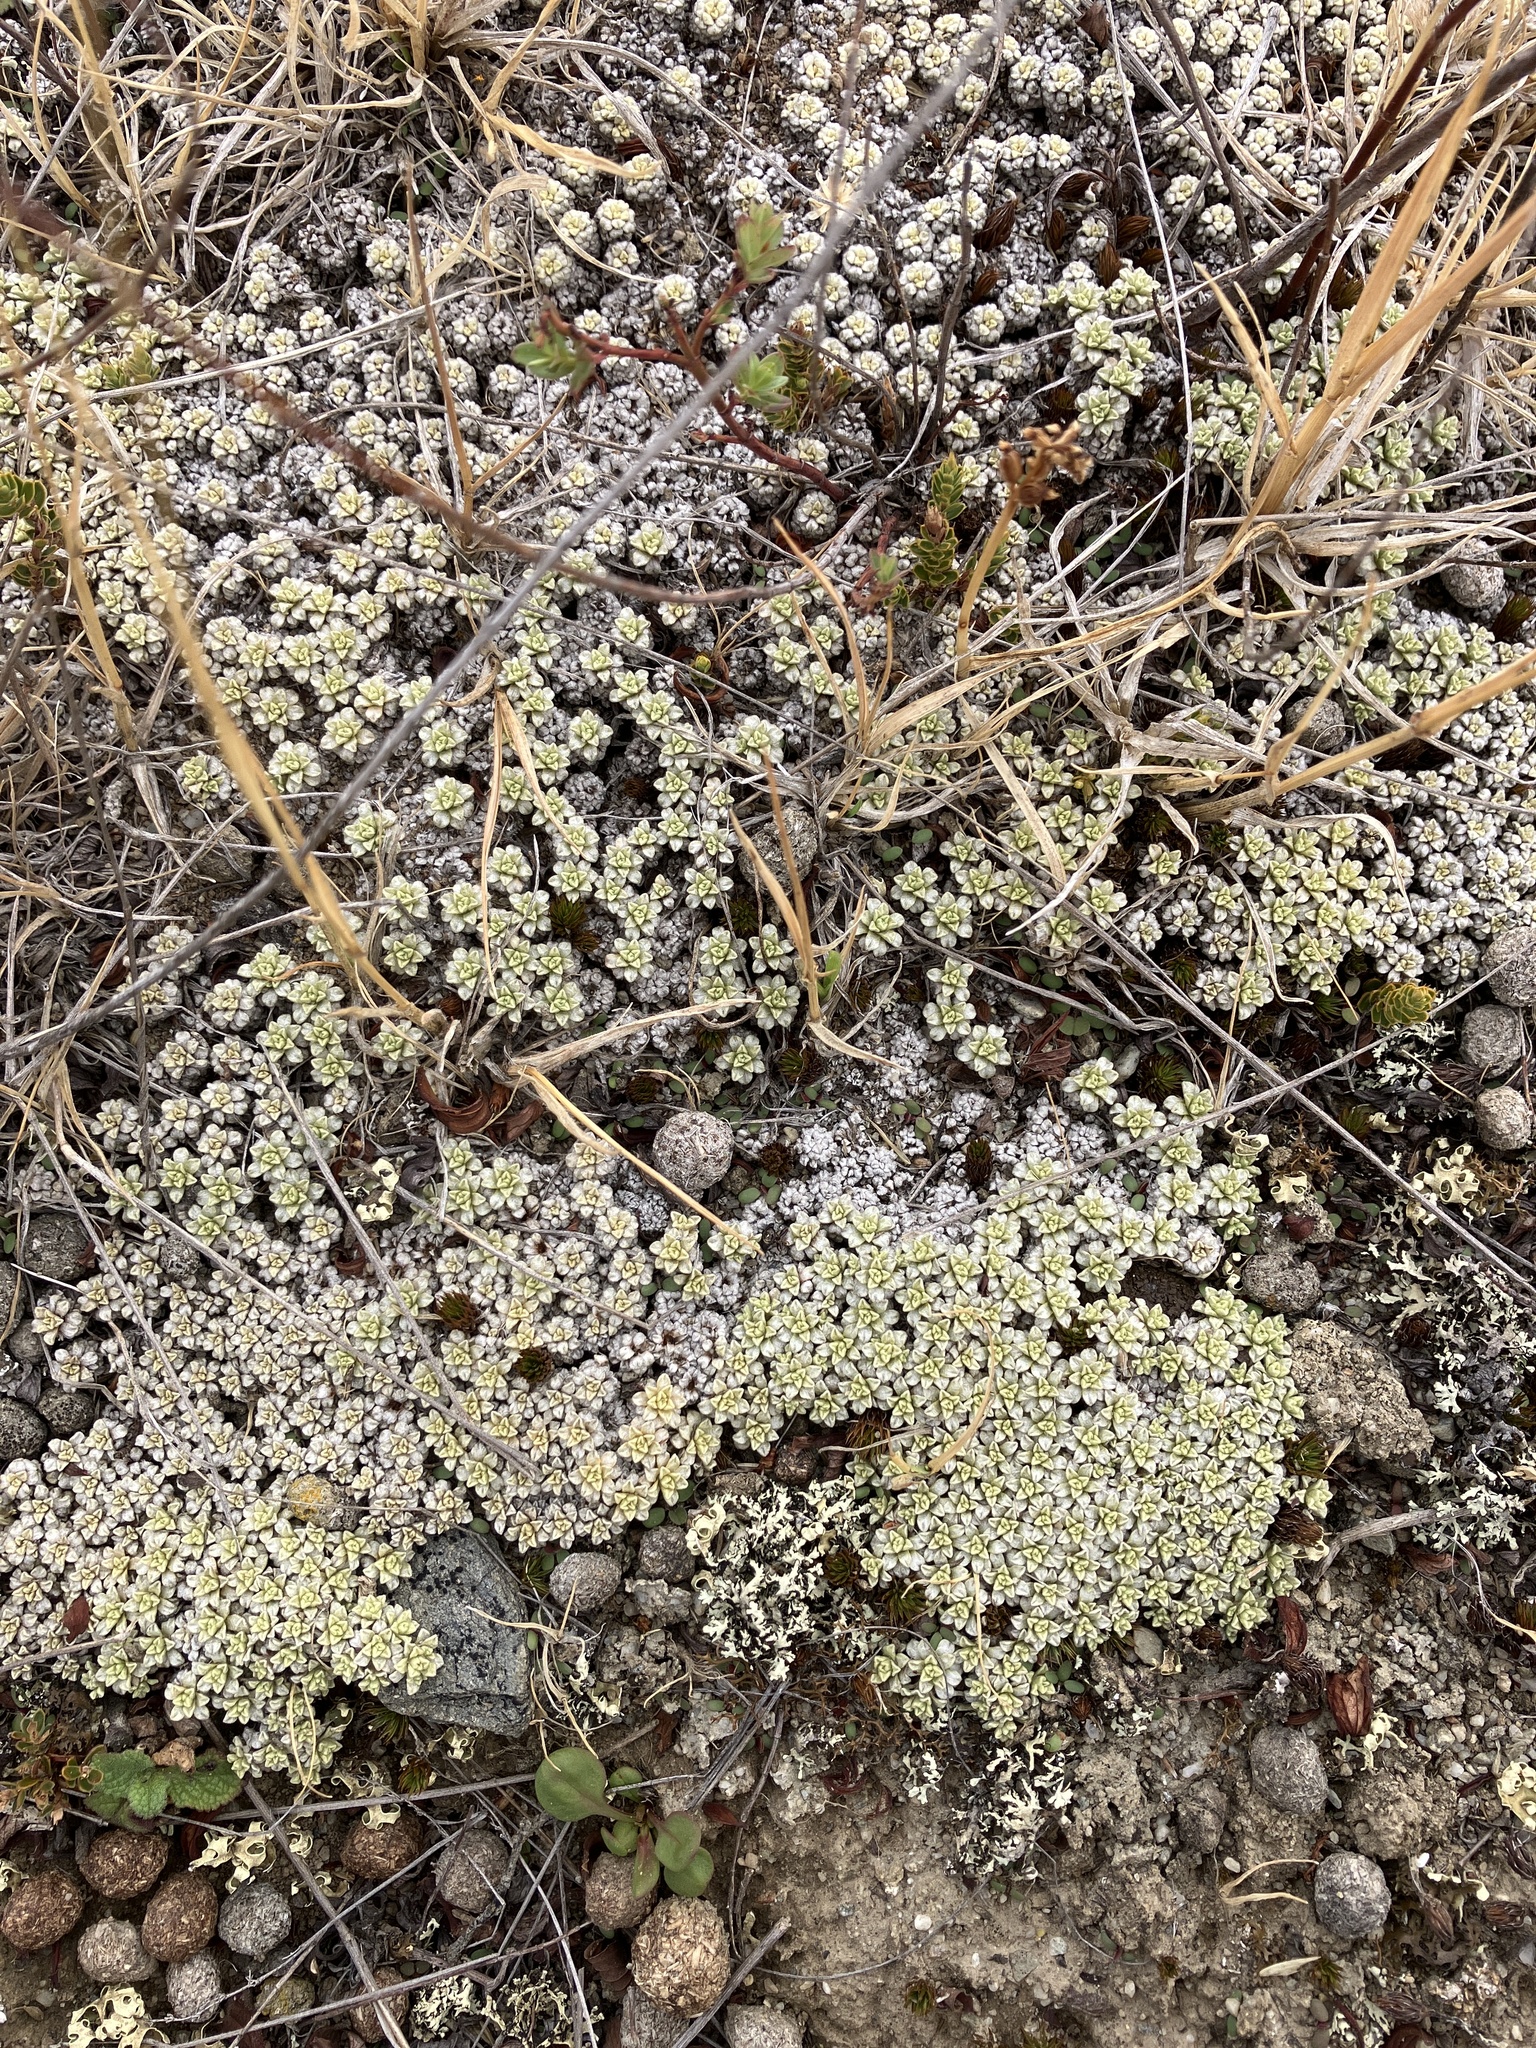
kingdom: Plantae
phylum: Tracheophyta
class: Magnoliopsida
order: Asterales
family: Asteraceae
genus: Raoulia
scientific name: Raoulia parkii
